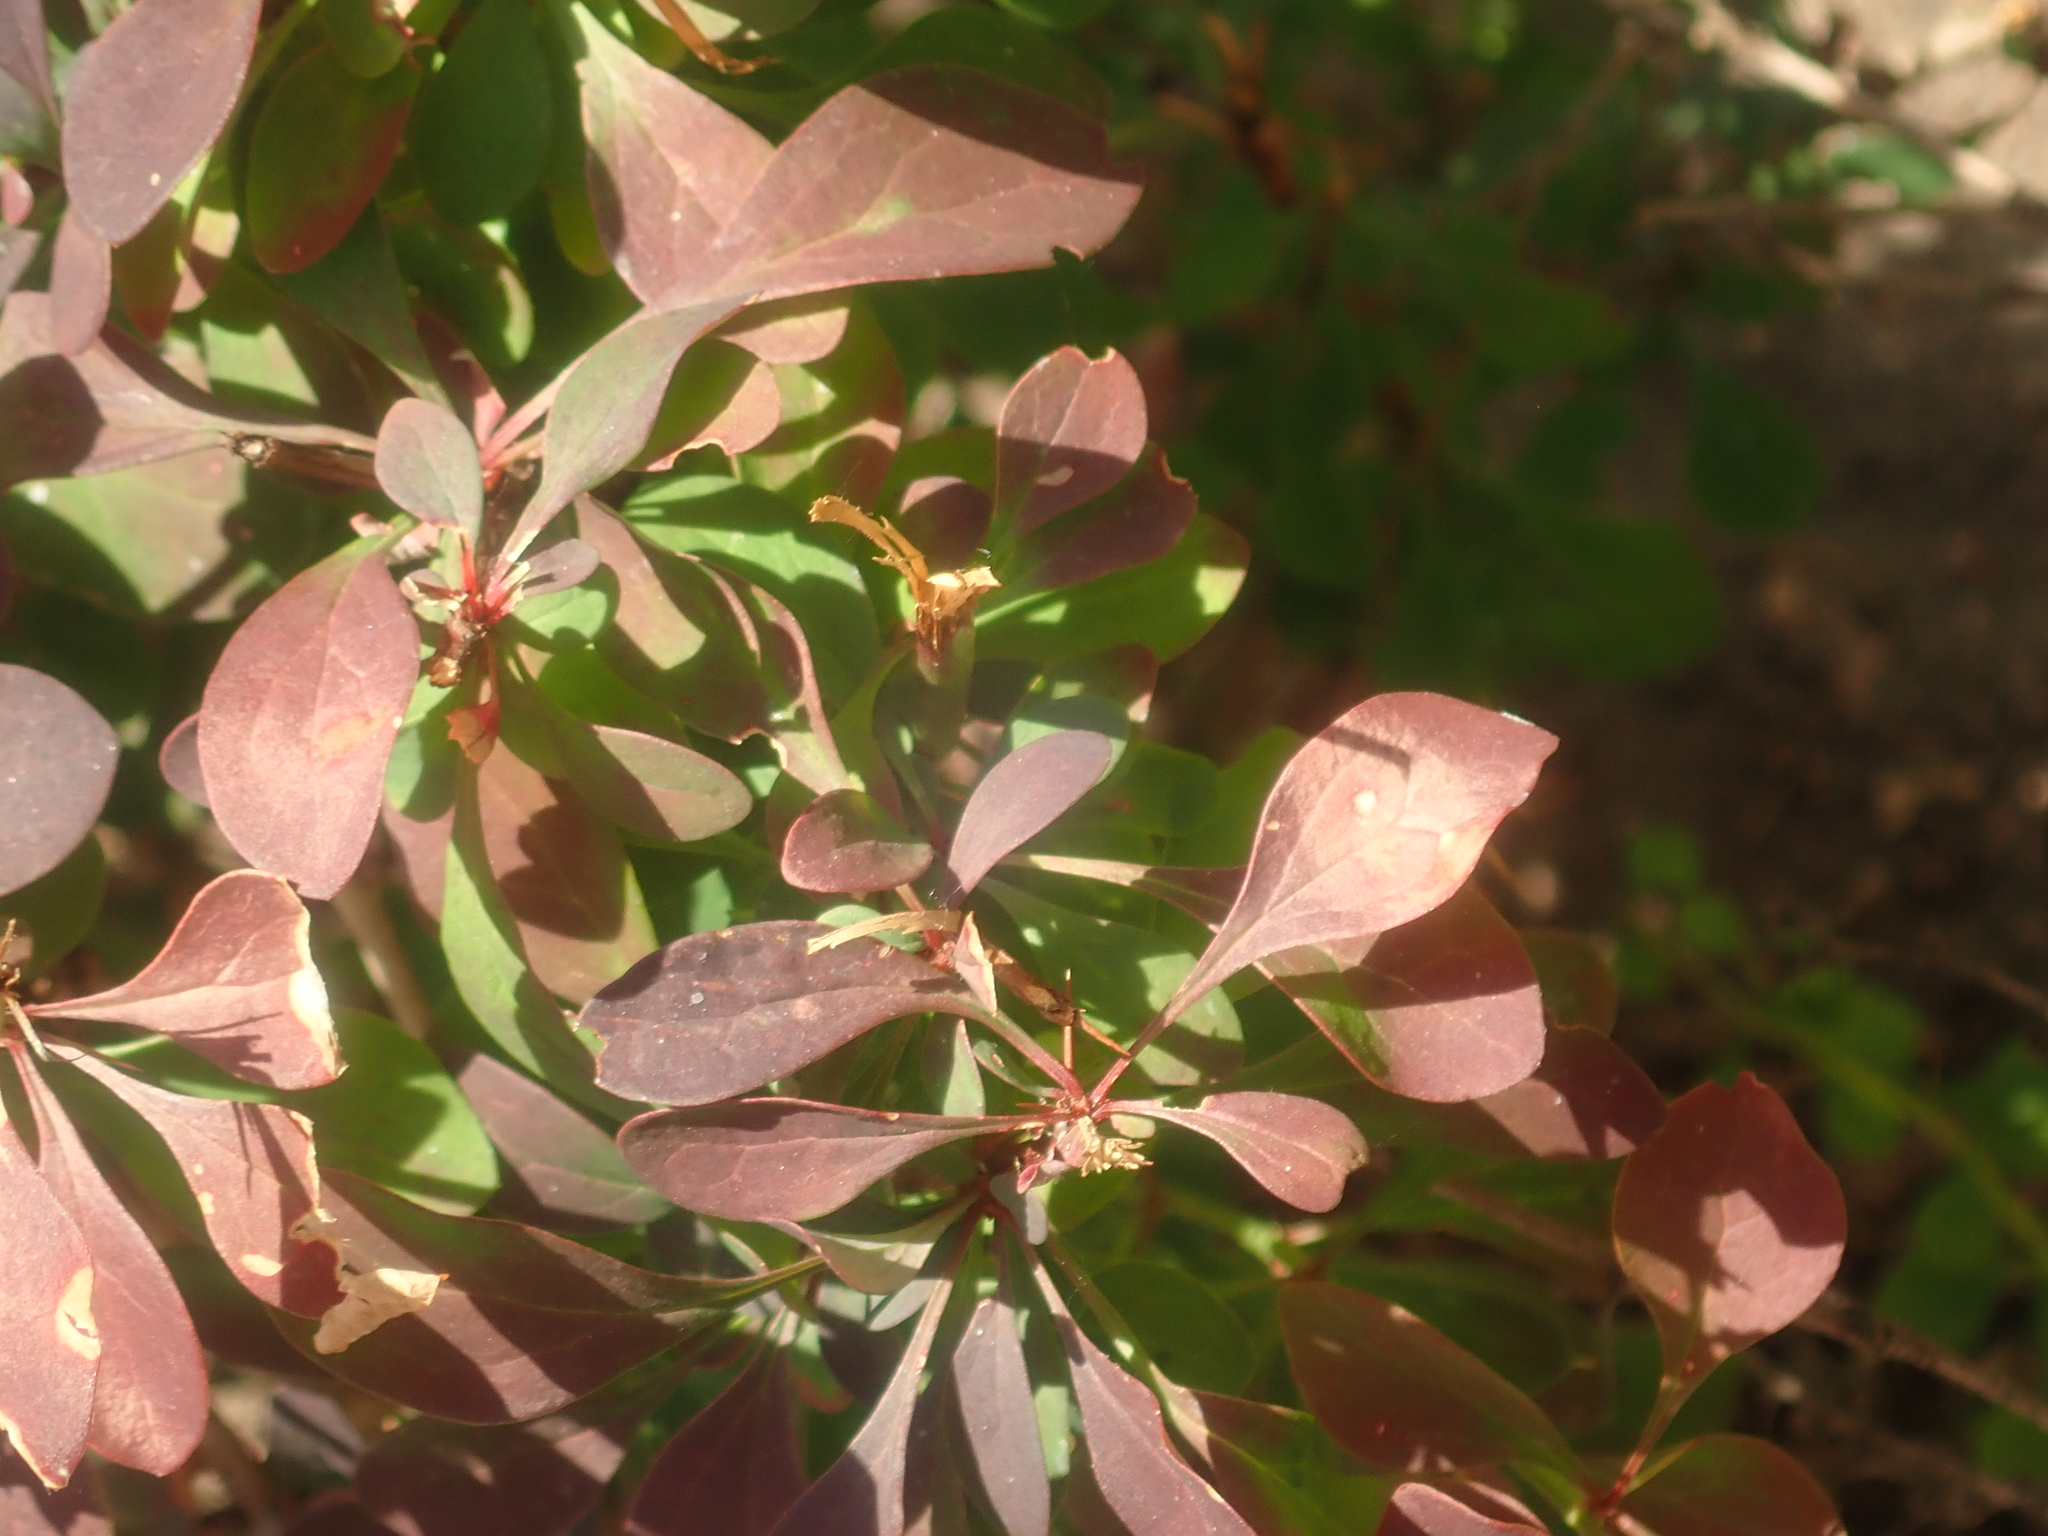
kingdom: Plantae
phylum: Tracheophyta
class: Magnoliopsida
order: Ranunculales
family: Berberidaceae
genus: Berberis
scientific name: Berberis thunbergii
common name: Japanese barberry
